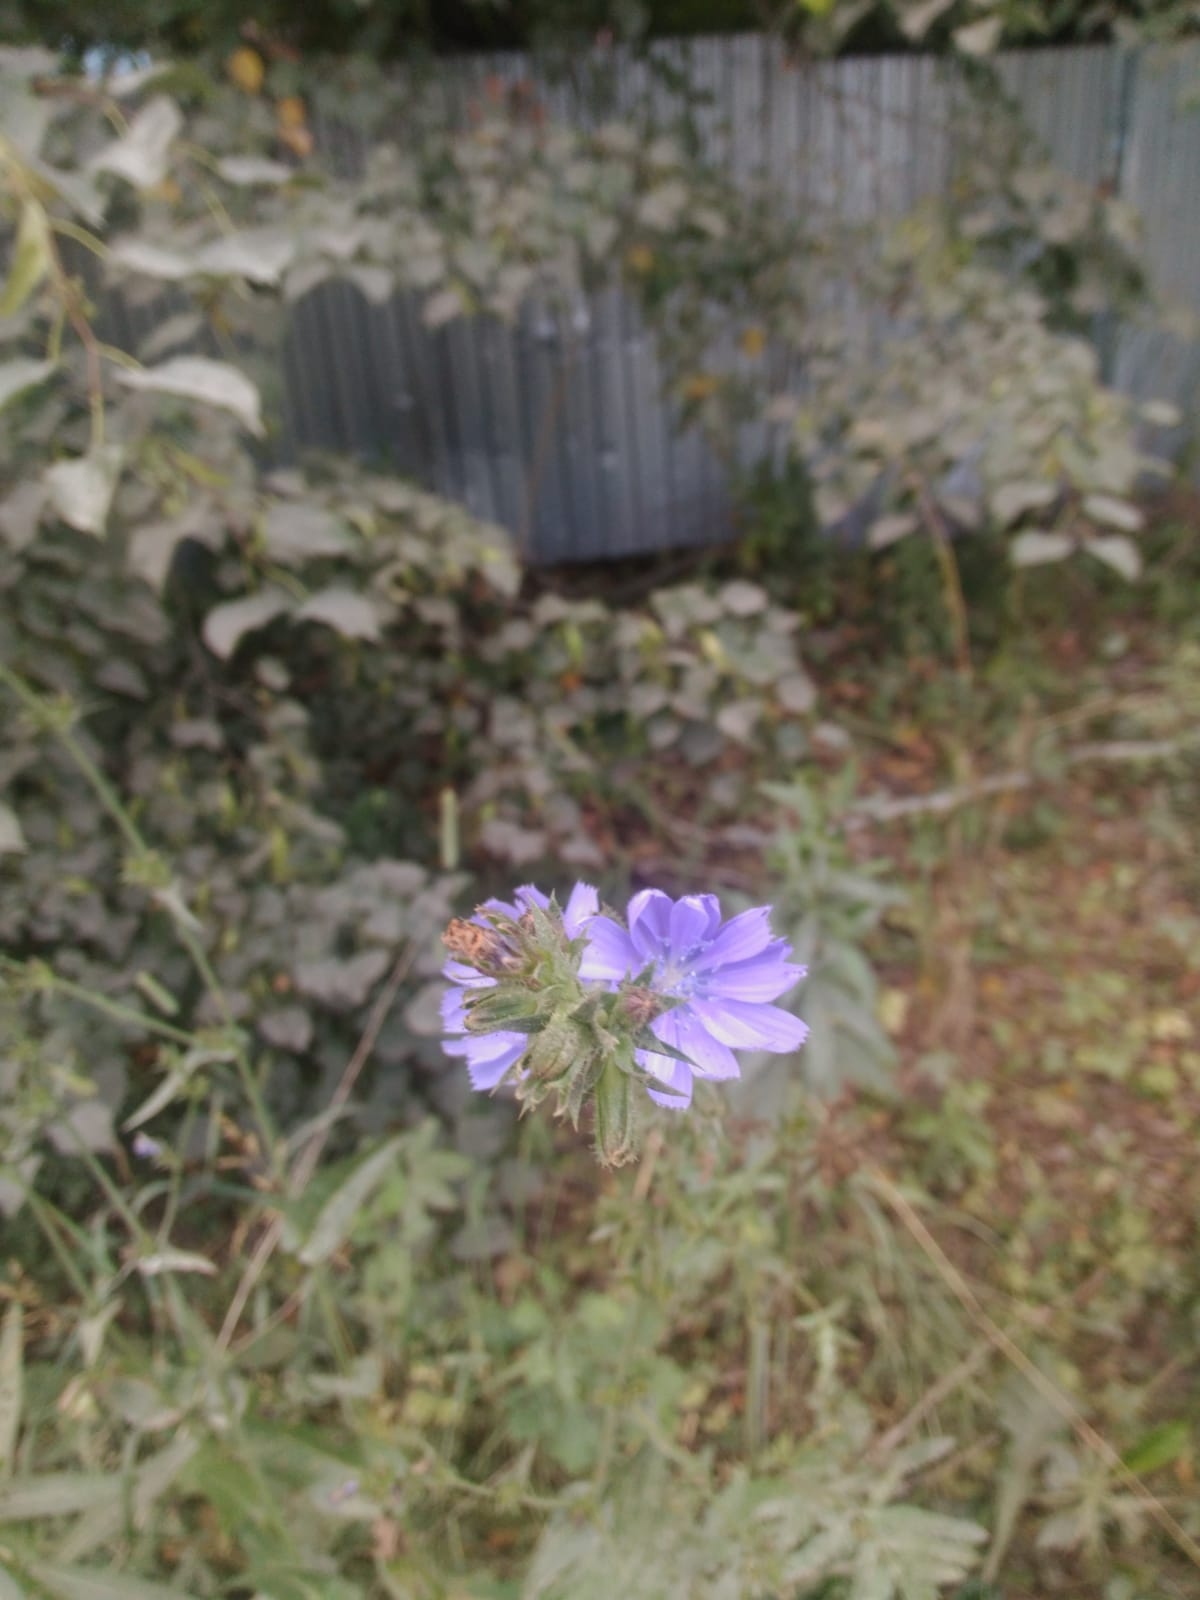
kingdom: Plantae
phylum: Tracheophyta
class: Magnoliopsida
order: Asterales
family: Asteraceae
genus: Cichorium
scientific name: Cichorium intybus
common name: Chicory
